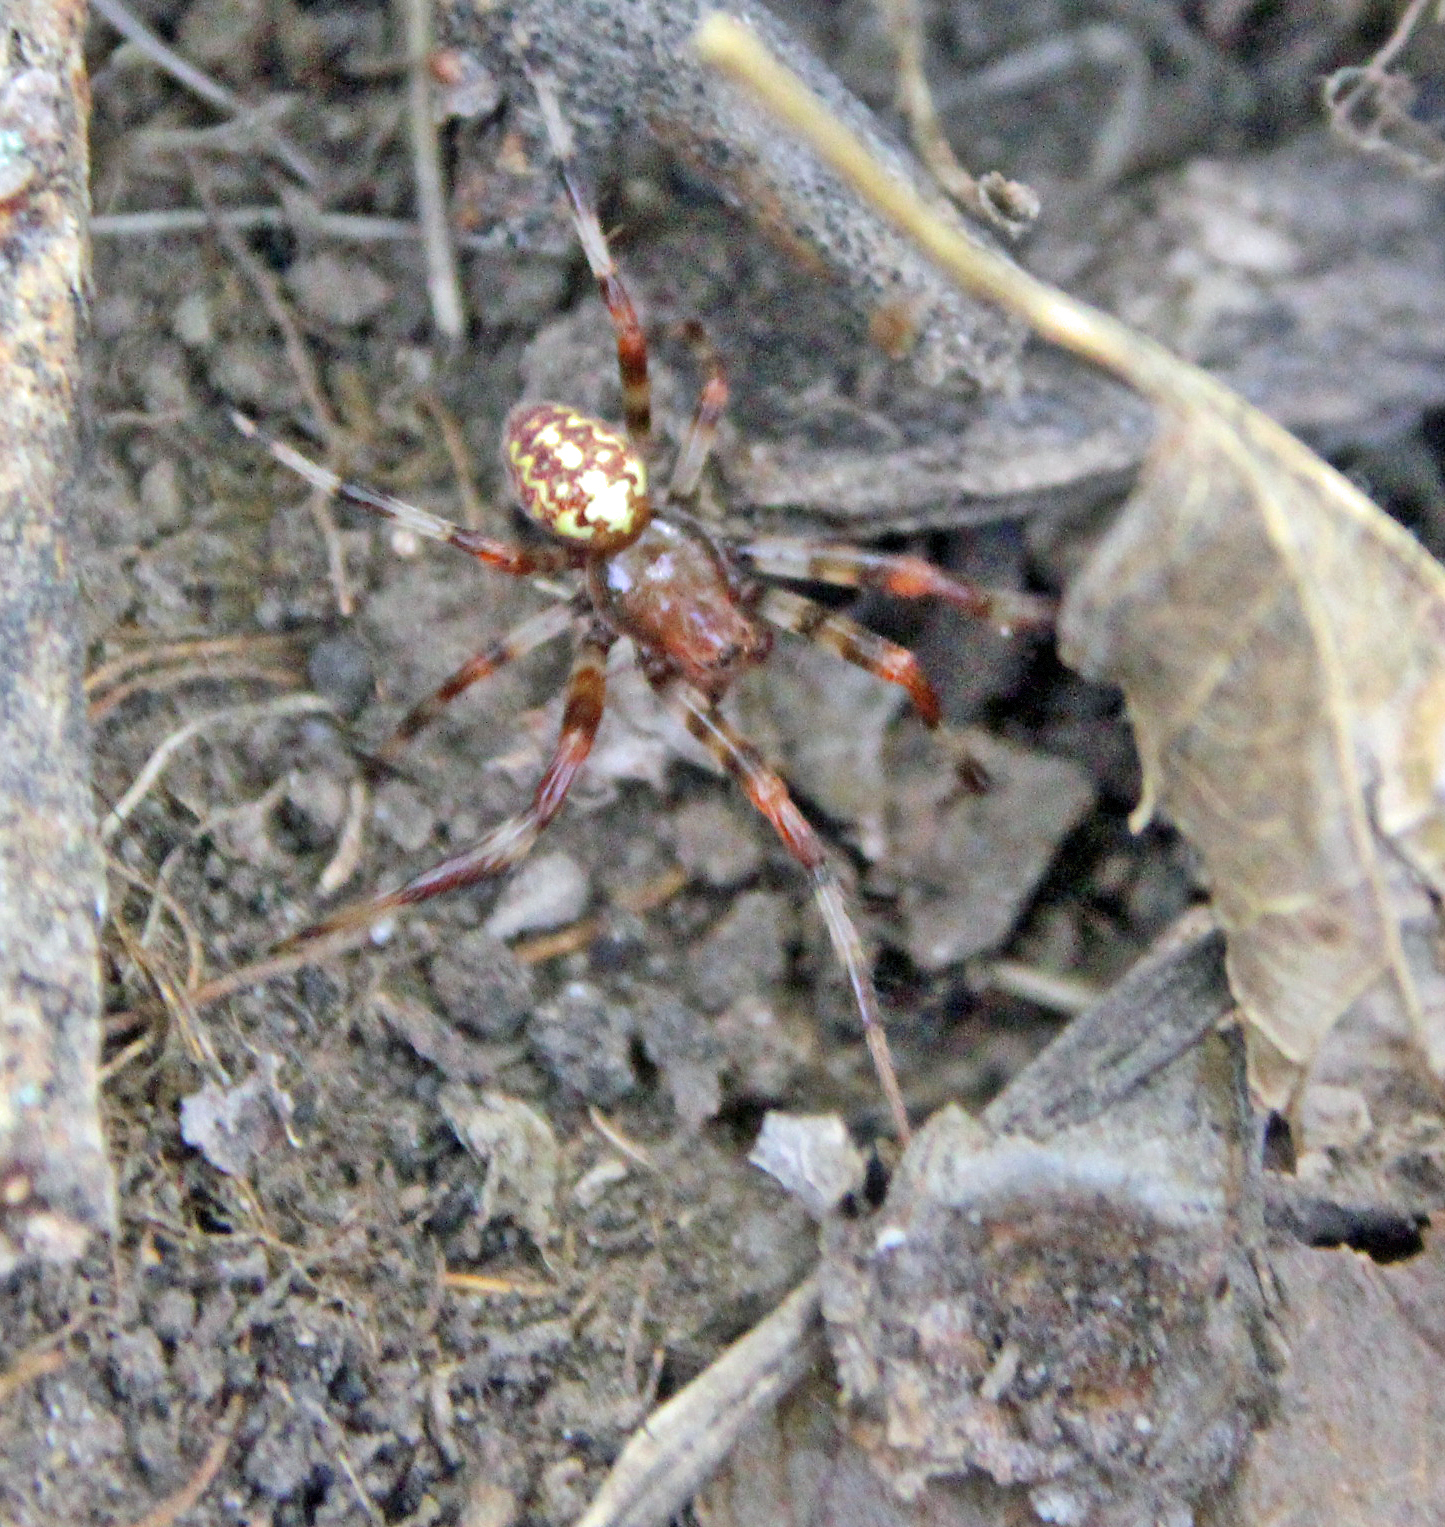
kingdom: Animalia
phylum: Arthropoda
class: Arachnida
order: Araneae
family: Araneidae
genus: Araneus
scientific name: Araneus marmoreus
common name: Marbled orbweaver
